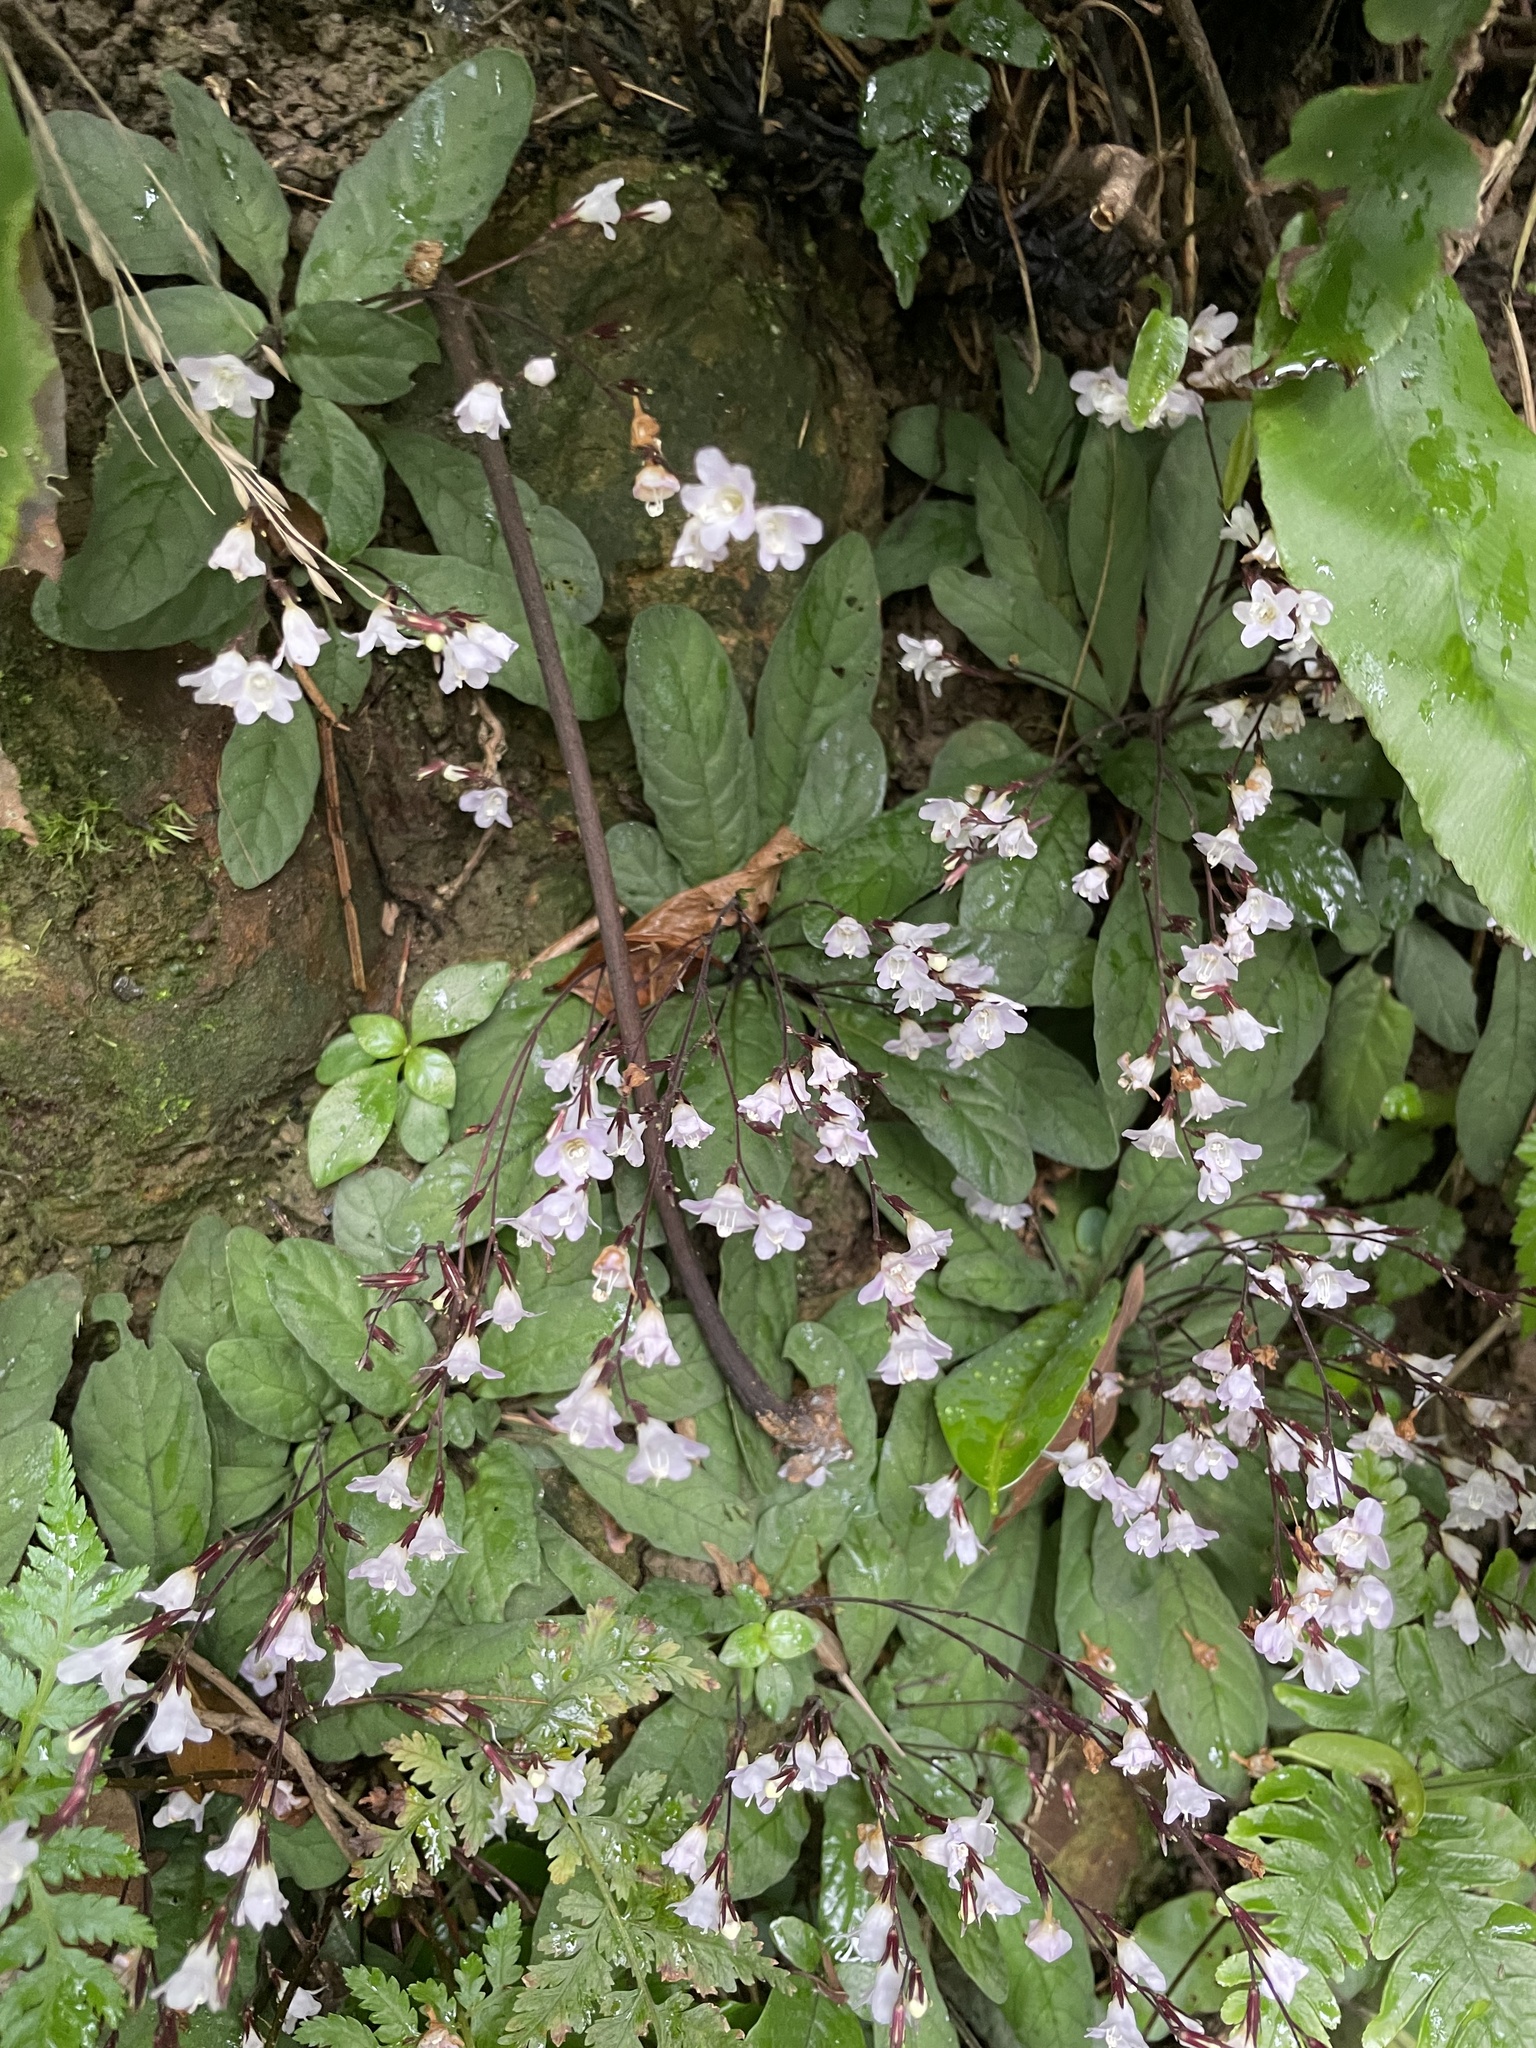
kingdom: Plantae
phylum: Tracheophyta
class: Magnoliopsida
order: Lamiales
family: Acanthaceae
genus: Staurogyne
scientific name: Staurogyne concinnula
